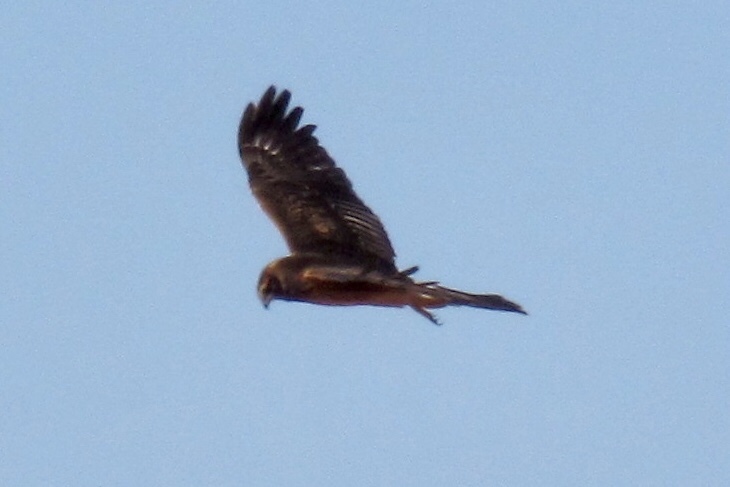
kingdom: Animalia
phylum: Chordata
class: Aves
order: Accipitriformes
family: Accipitridae
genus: Circus
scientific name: Circus cyaneus
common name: Hen harrier
